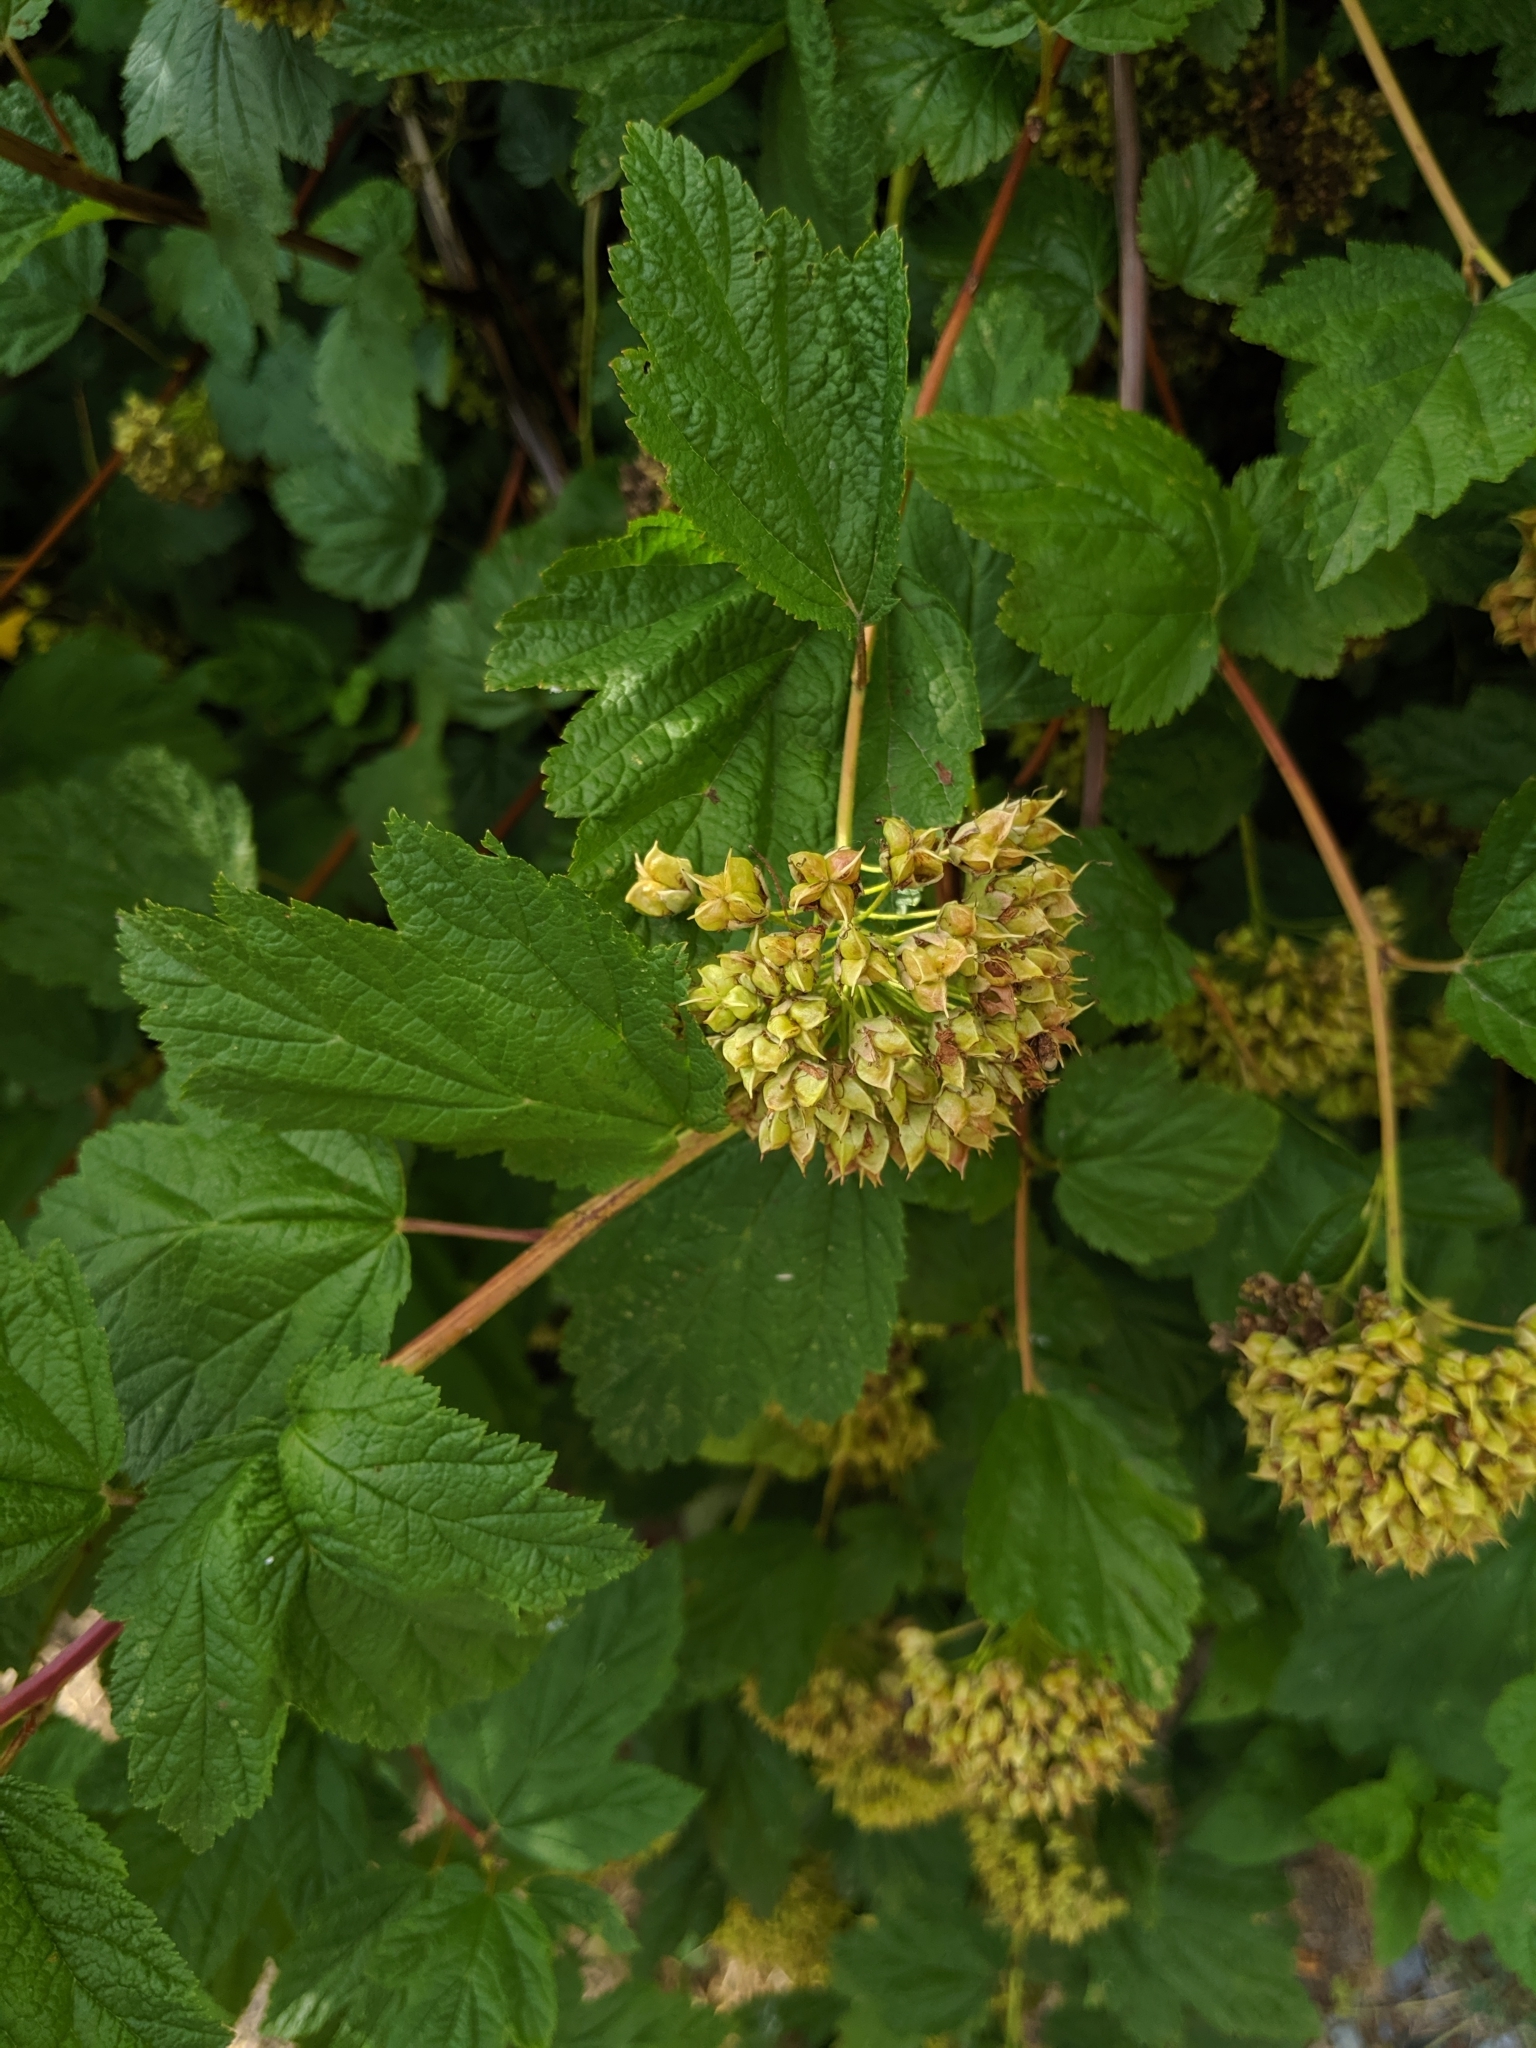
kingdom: Plantae
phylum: Tracheophyta
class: Magnoliopsida
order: Rosales
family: Rosaceae
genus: Physocarpus
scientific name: Physocarpus capitatus
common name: Pacific ninebark
